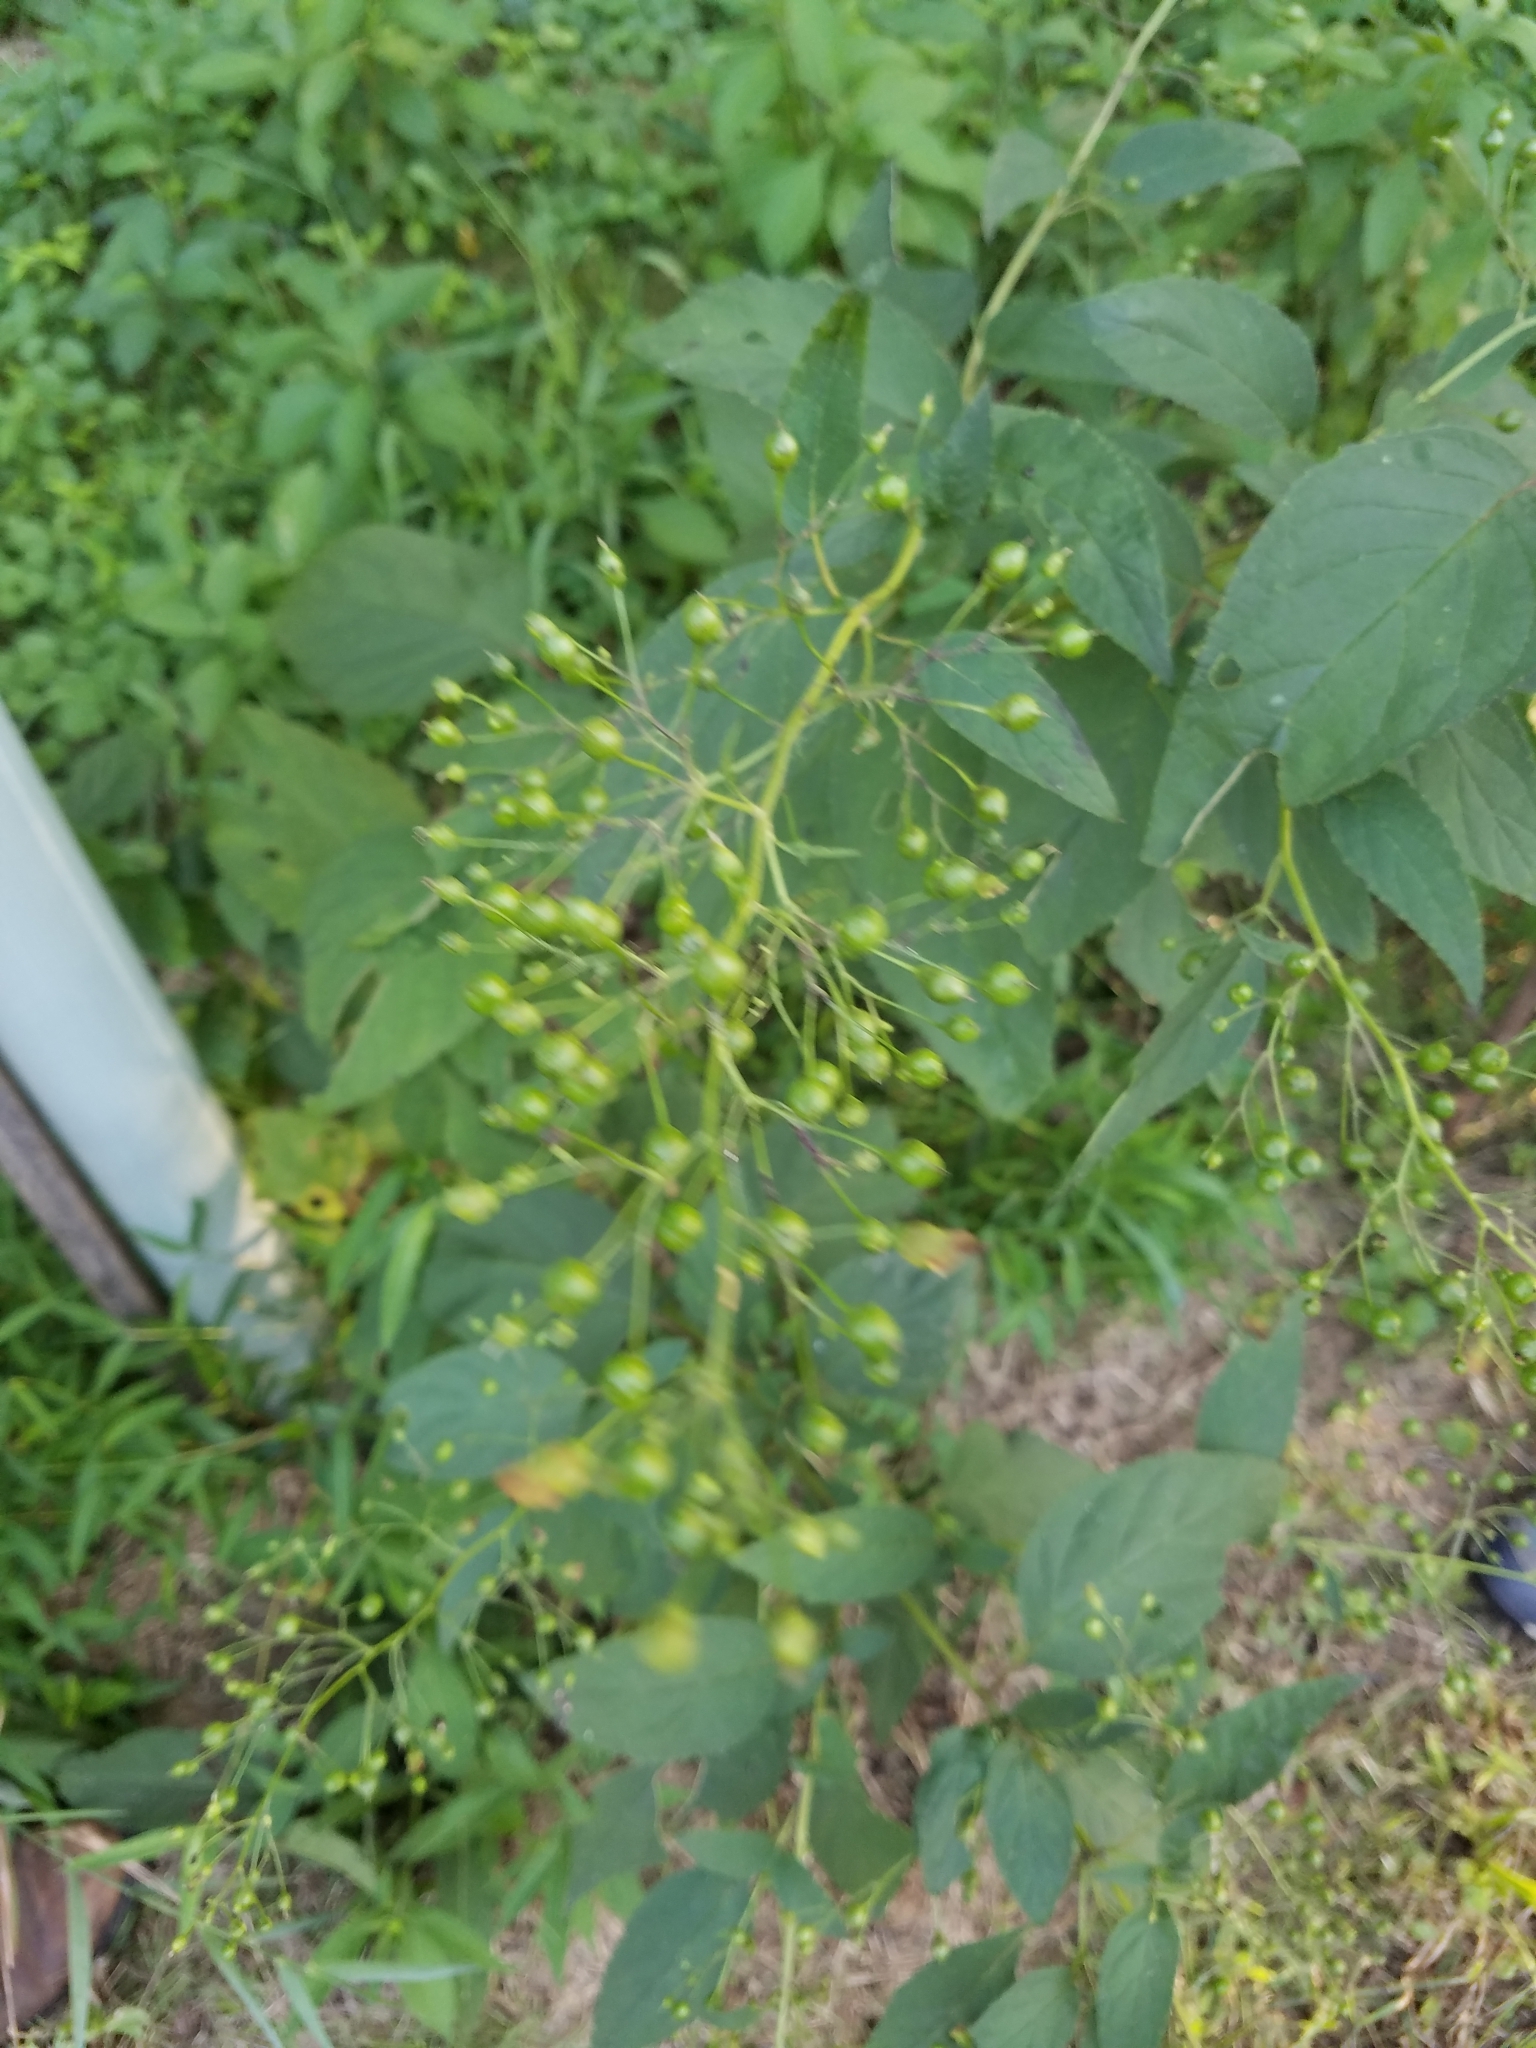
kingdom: Plantae
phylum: Tracheophyta
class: Magnoliopsida
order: Lamiales
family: Scrophulariaceae
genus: Scrophularia
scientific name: Scrophularia marilandica
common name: Eastern figwort
